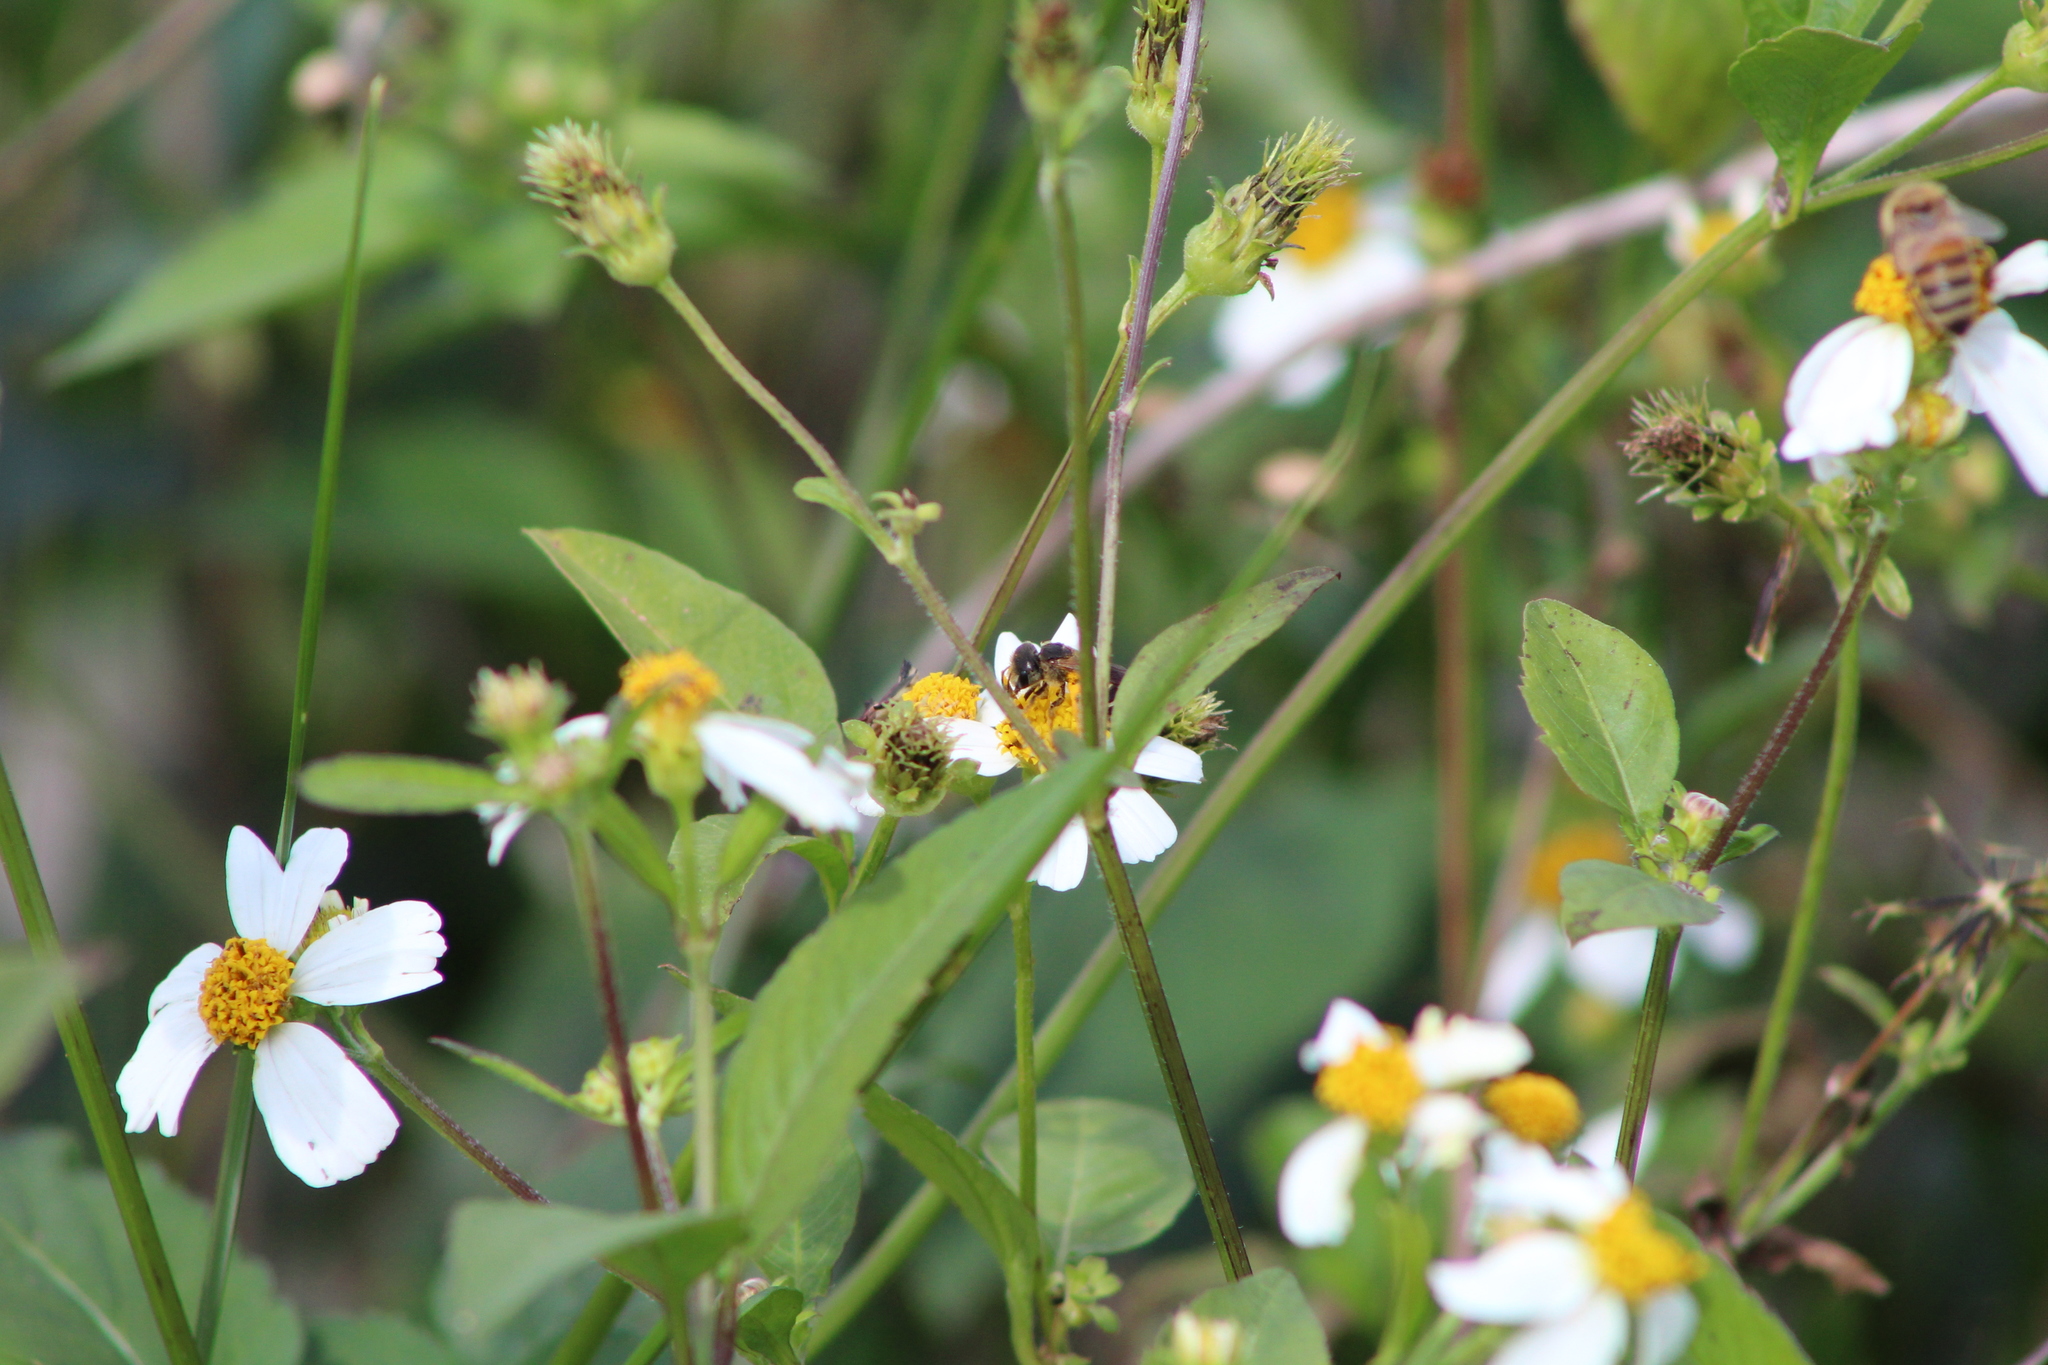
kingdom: Animalia
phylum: Arthropoda
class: Insecta
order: Hymenoptera
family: Halictidae
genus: Halictus
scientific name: Halictus poeyi
